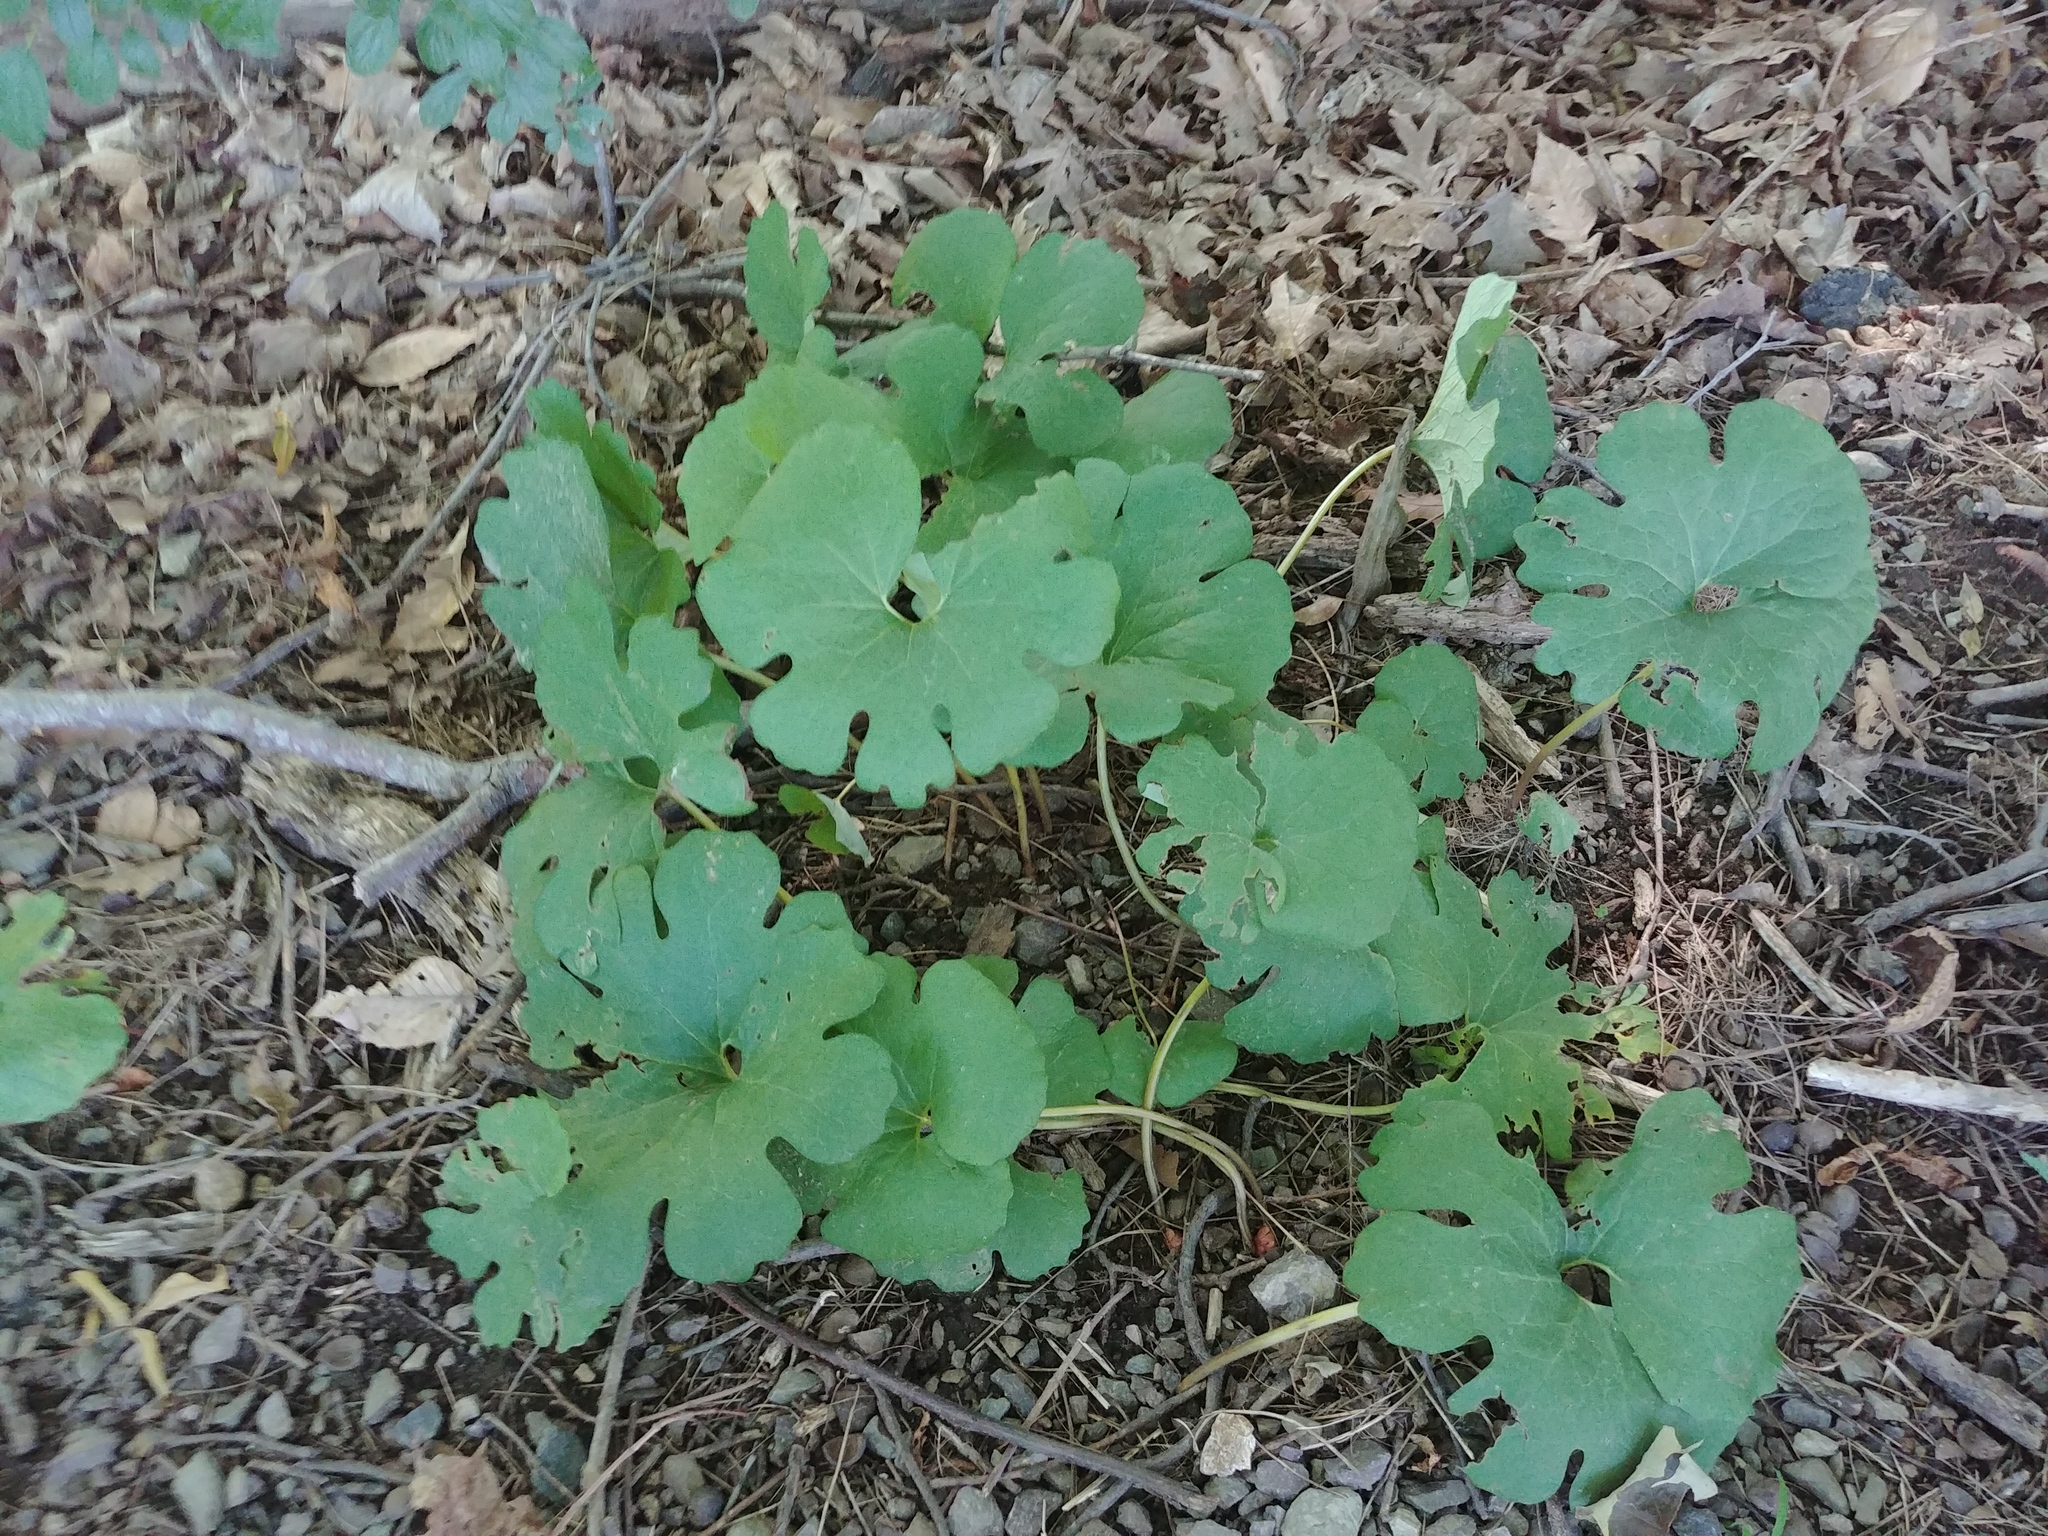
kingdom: Plantae
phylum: Tracheophyta
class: Magnoliopsida
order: Ranunculales
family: Papaveraceae
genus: Sanguinaria
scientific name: Sanguinaria canadensis
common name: Bloodroot
